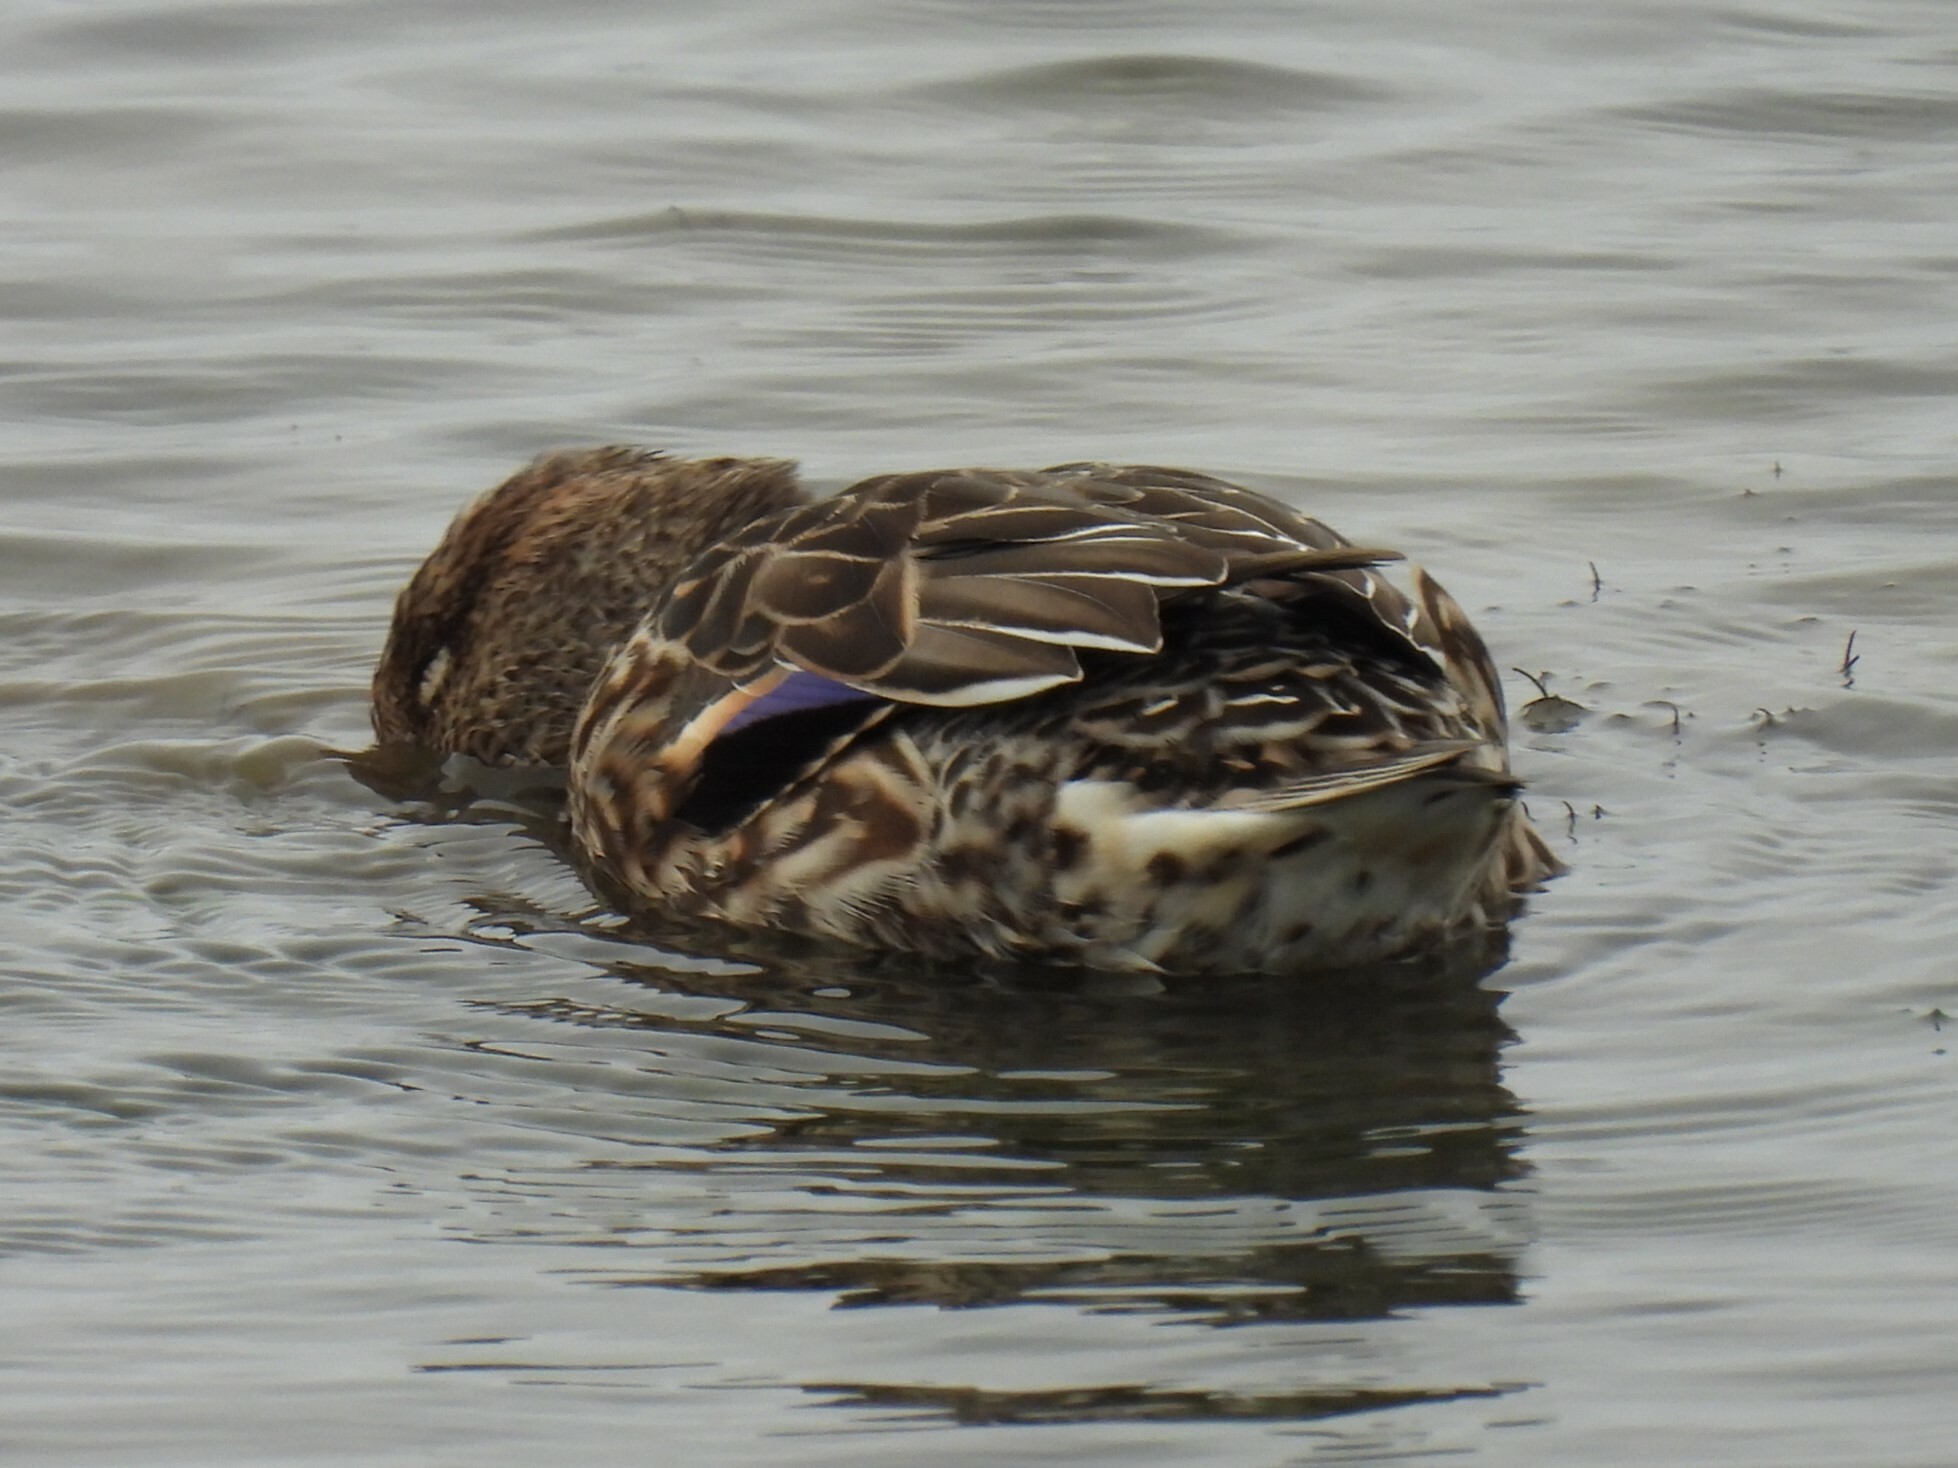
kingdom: Animalia
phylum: Chordata
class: Aves
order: Anseriformes
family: Anatidae
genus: Anas
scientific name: Anas crecca
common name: Eurasian teal
